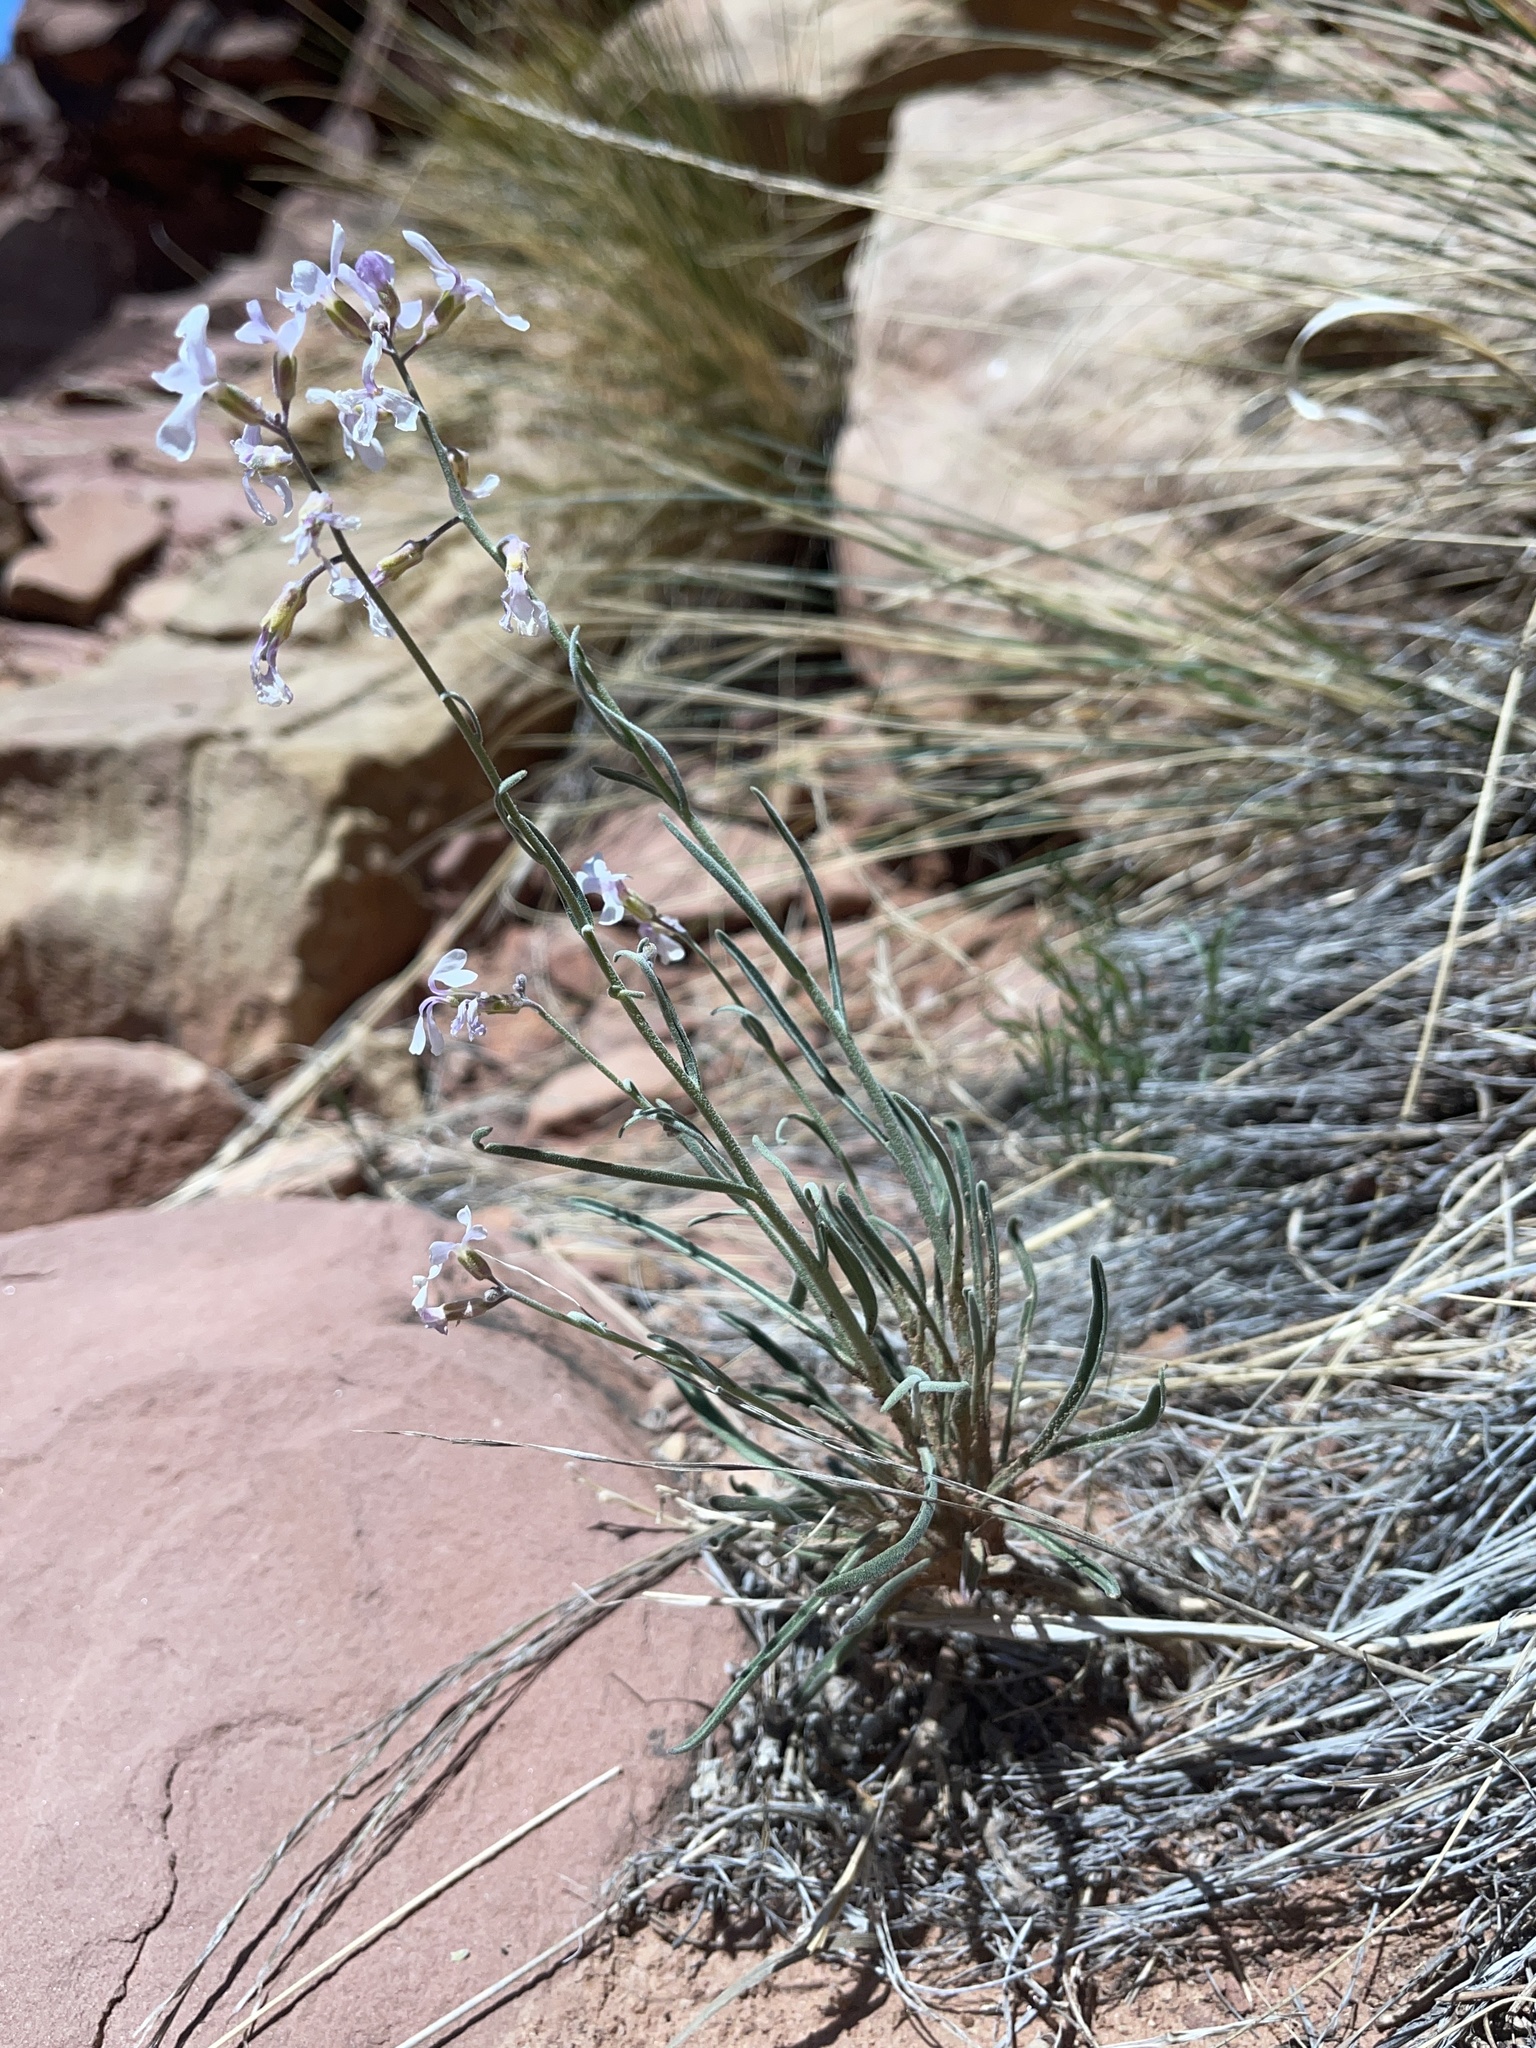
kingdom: Plantae
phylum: Tracheophyta
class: Magnoliopsida
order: Brassicales
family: Brassicaceae
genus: Boechera
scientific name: Boechera formosa
